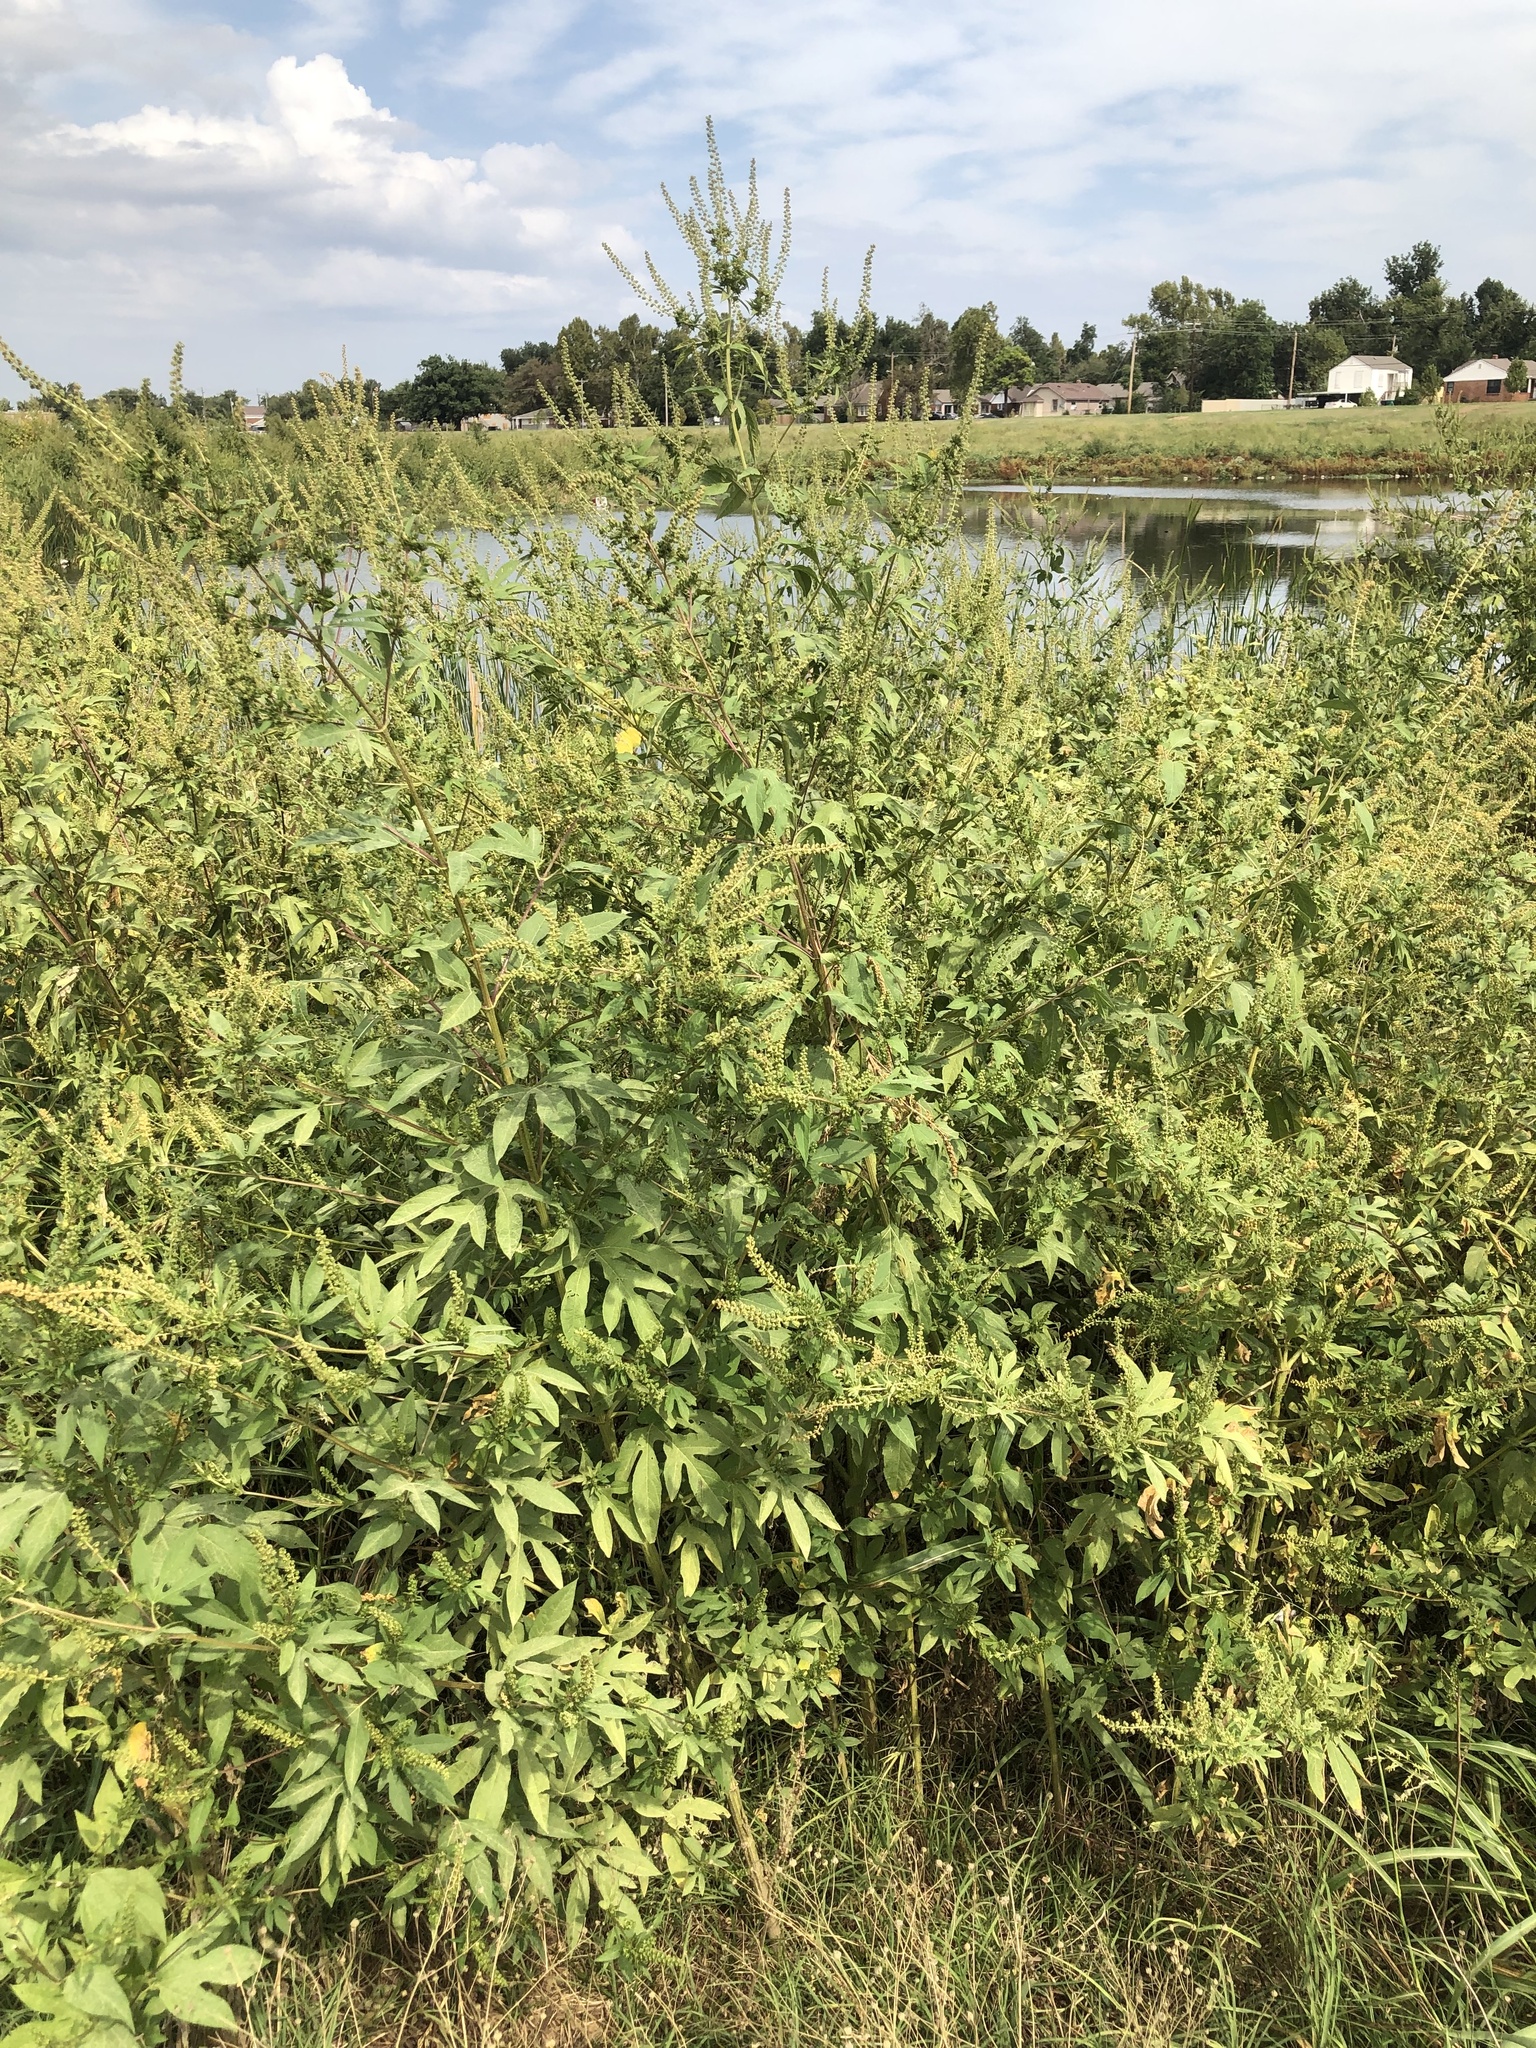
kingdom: Plantae
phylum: Tracheophyta
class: Magnoliopsida
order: Asterales
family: Asteraceae
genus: Ambrosia
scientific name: Ambrosia trifida
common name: Giant ragweed
